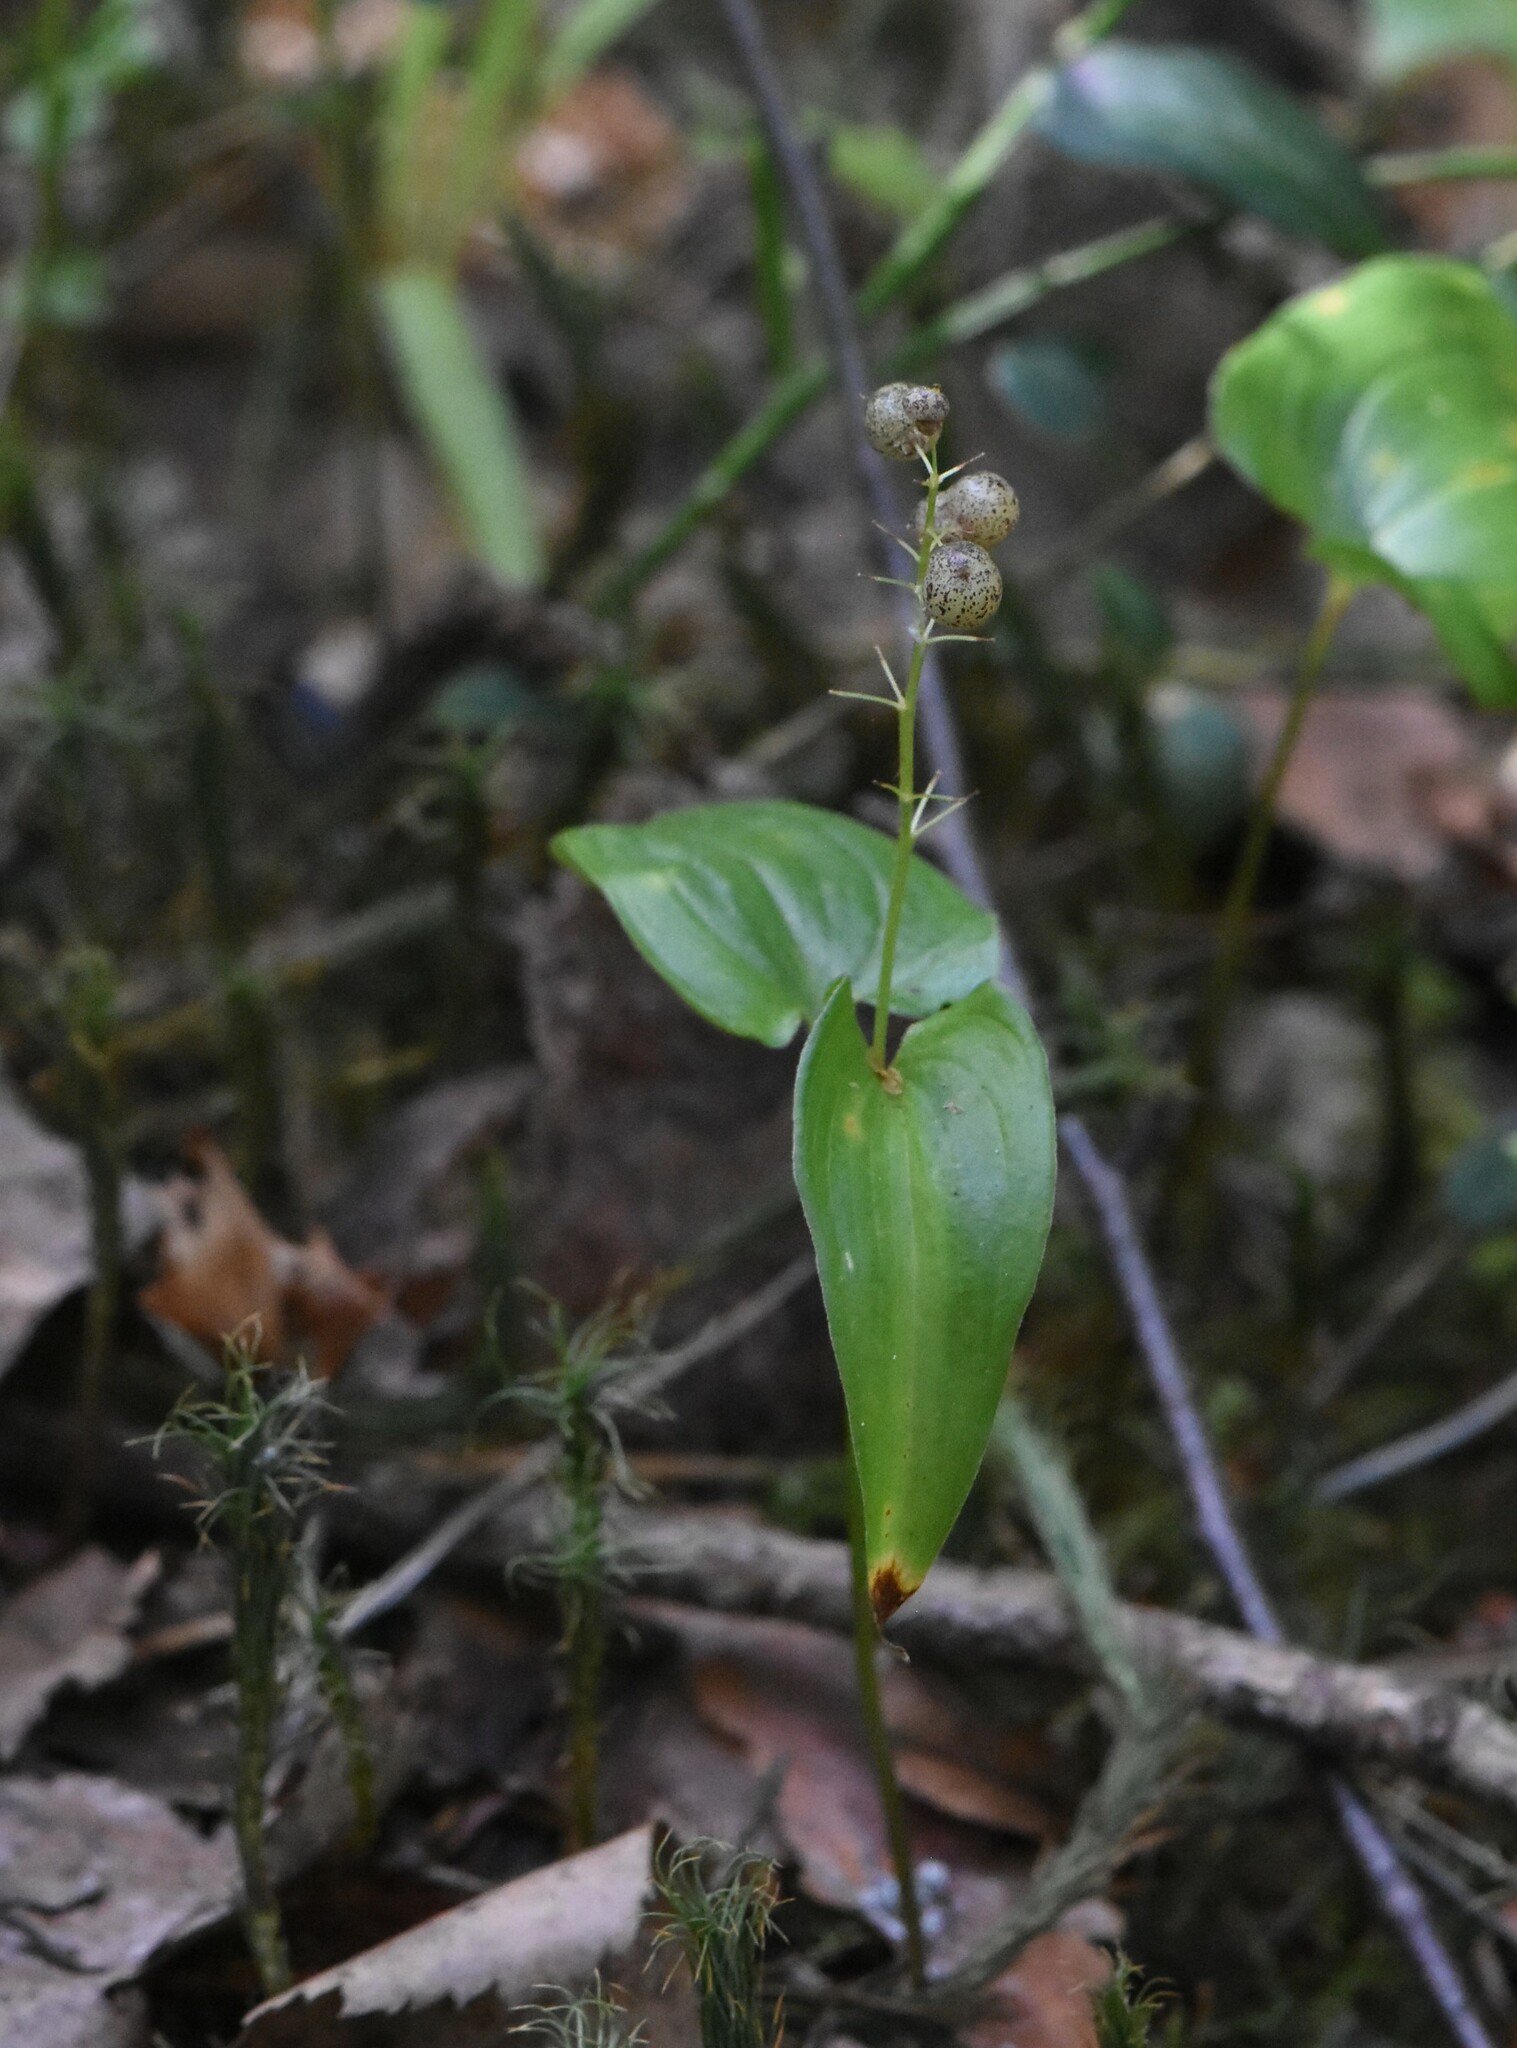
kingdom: Plantae
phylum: Tracheophyta
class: Liliopsida
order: Asparagales
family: Asparagaceae
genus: Maianthemum
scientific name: Maianthemum bifolium
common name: May lily
